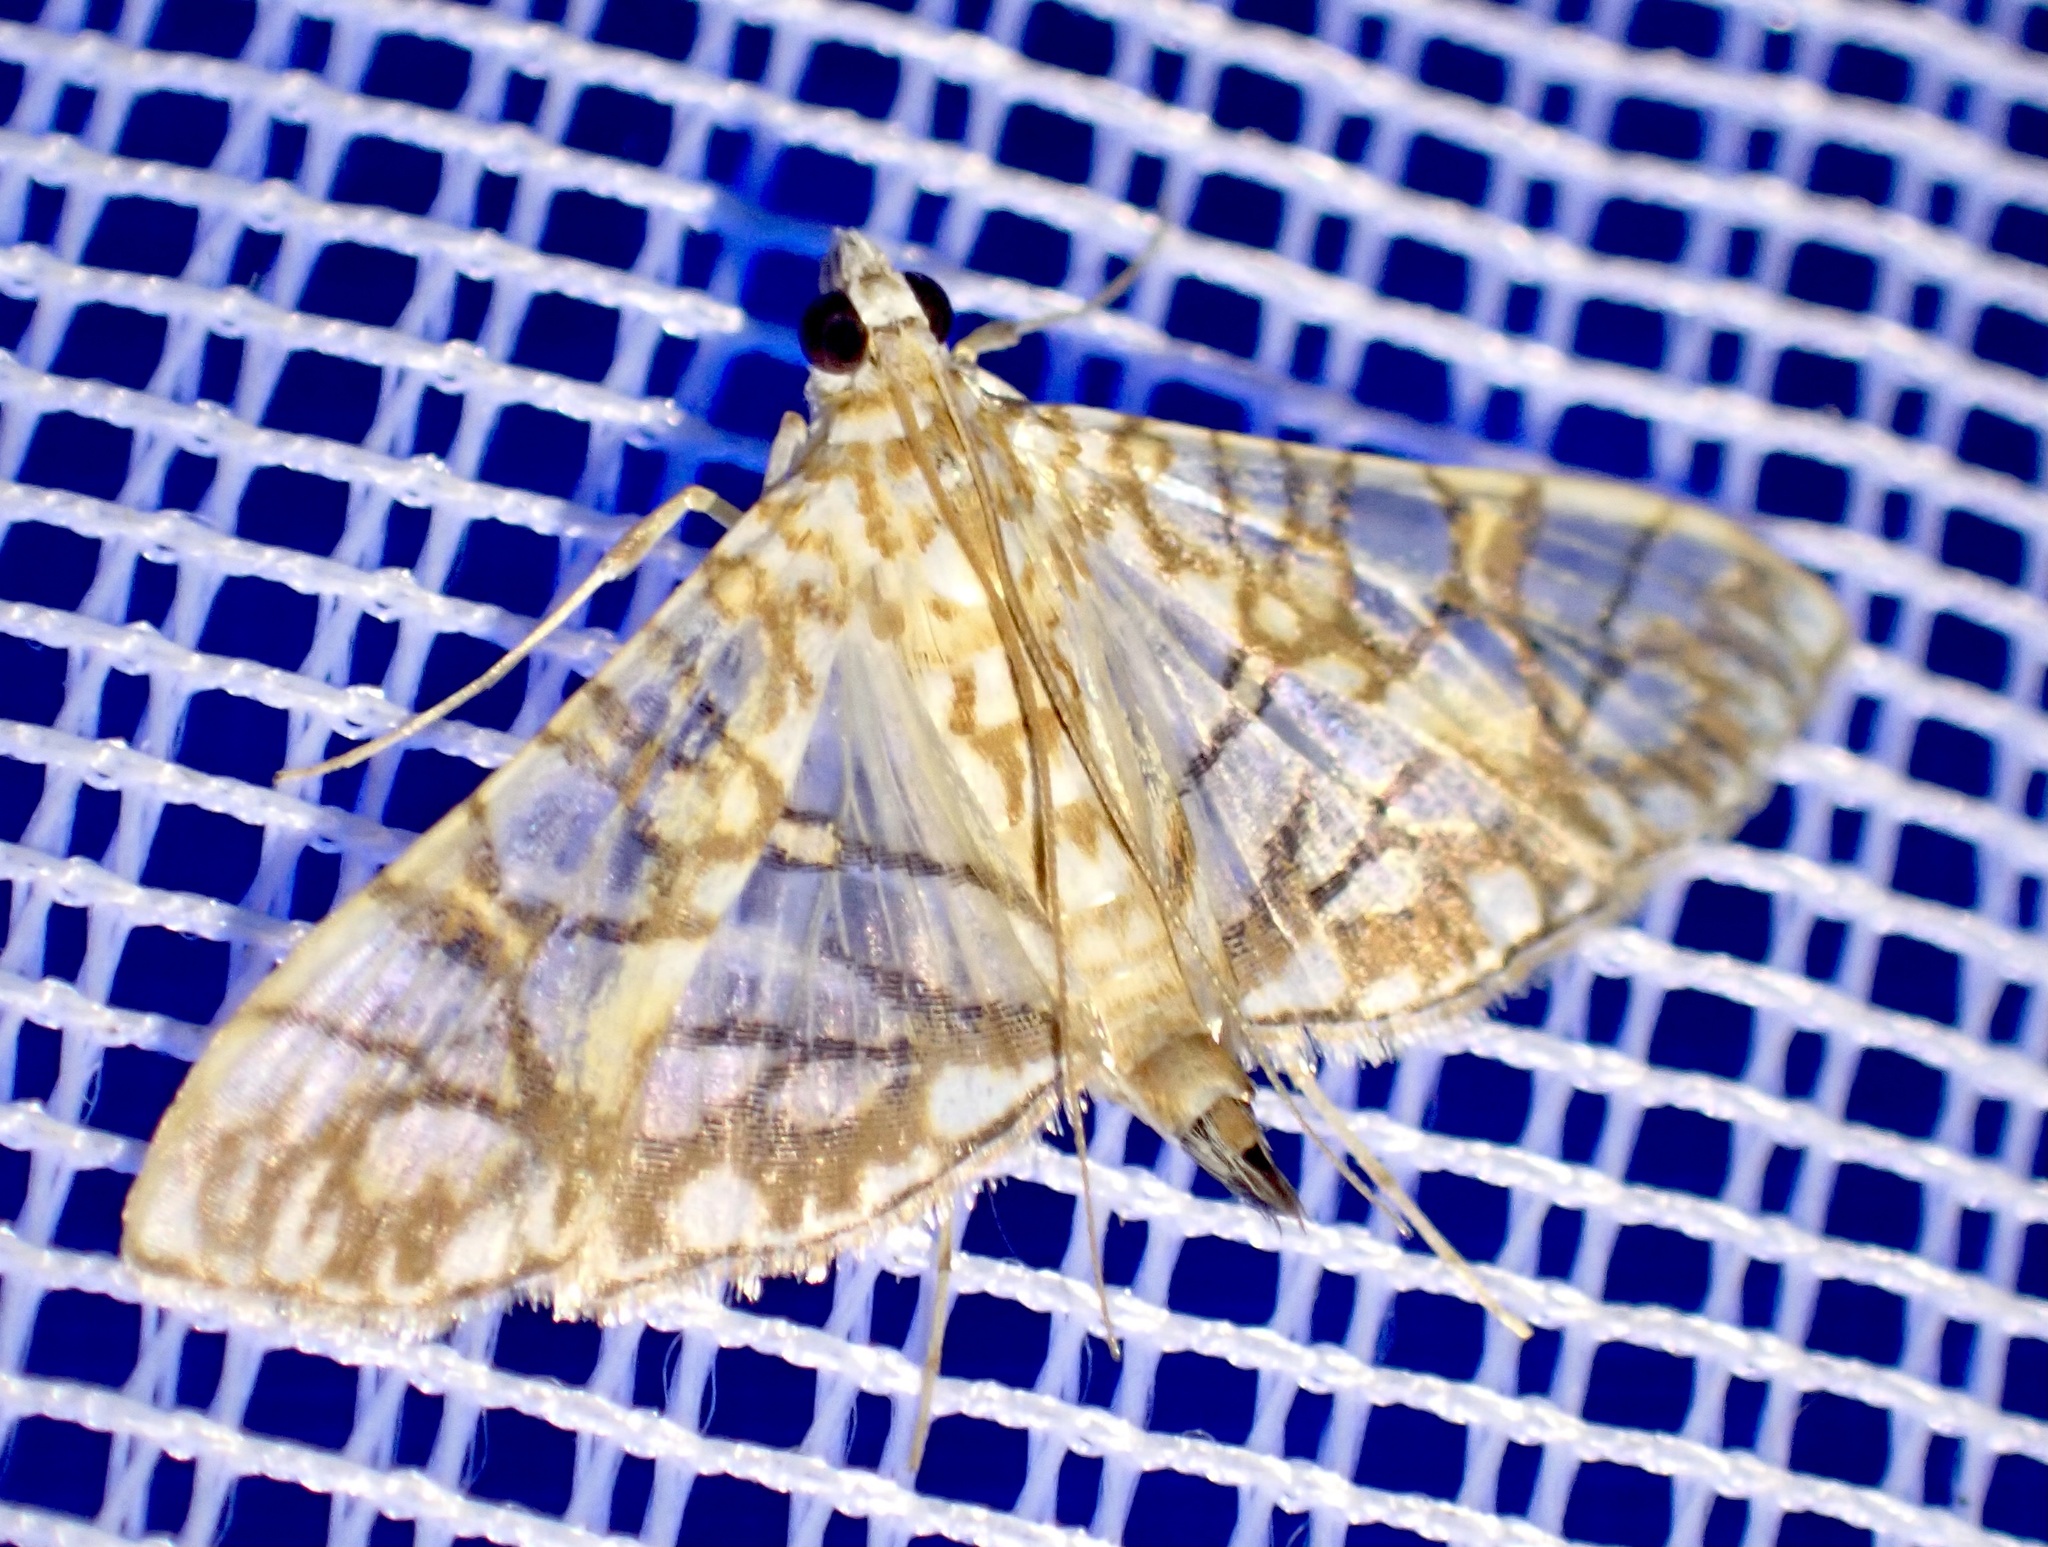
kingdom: Animalia
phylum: Arthropoda
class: Insecta
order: Lepidoptera
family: Crambidae
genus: Synclera
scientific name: Synclera traducalis
